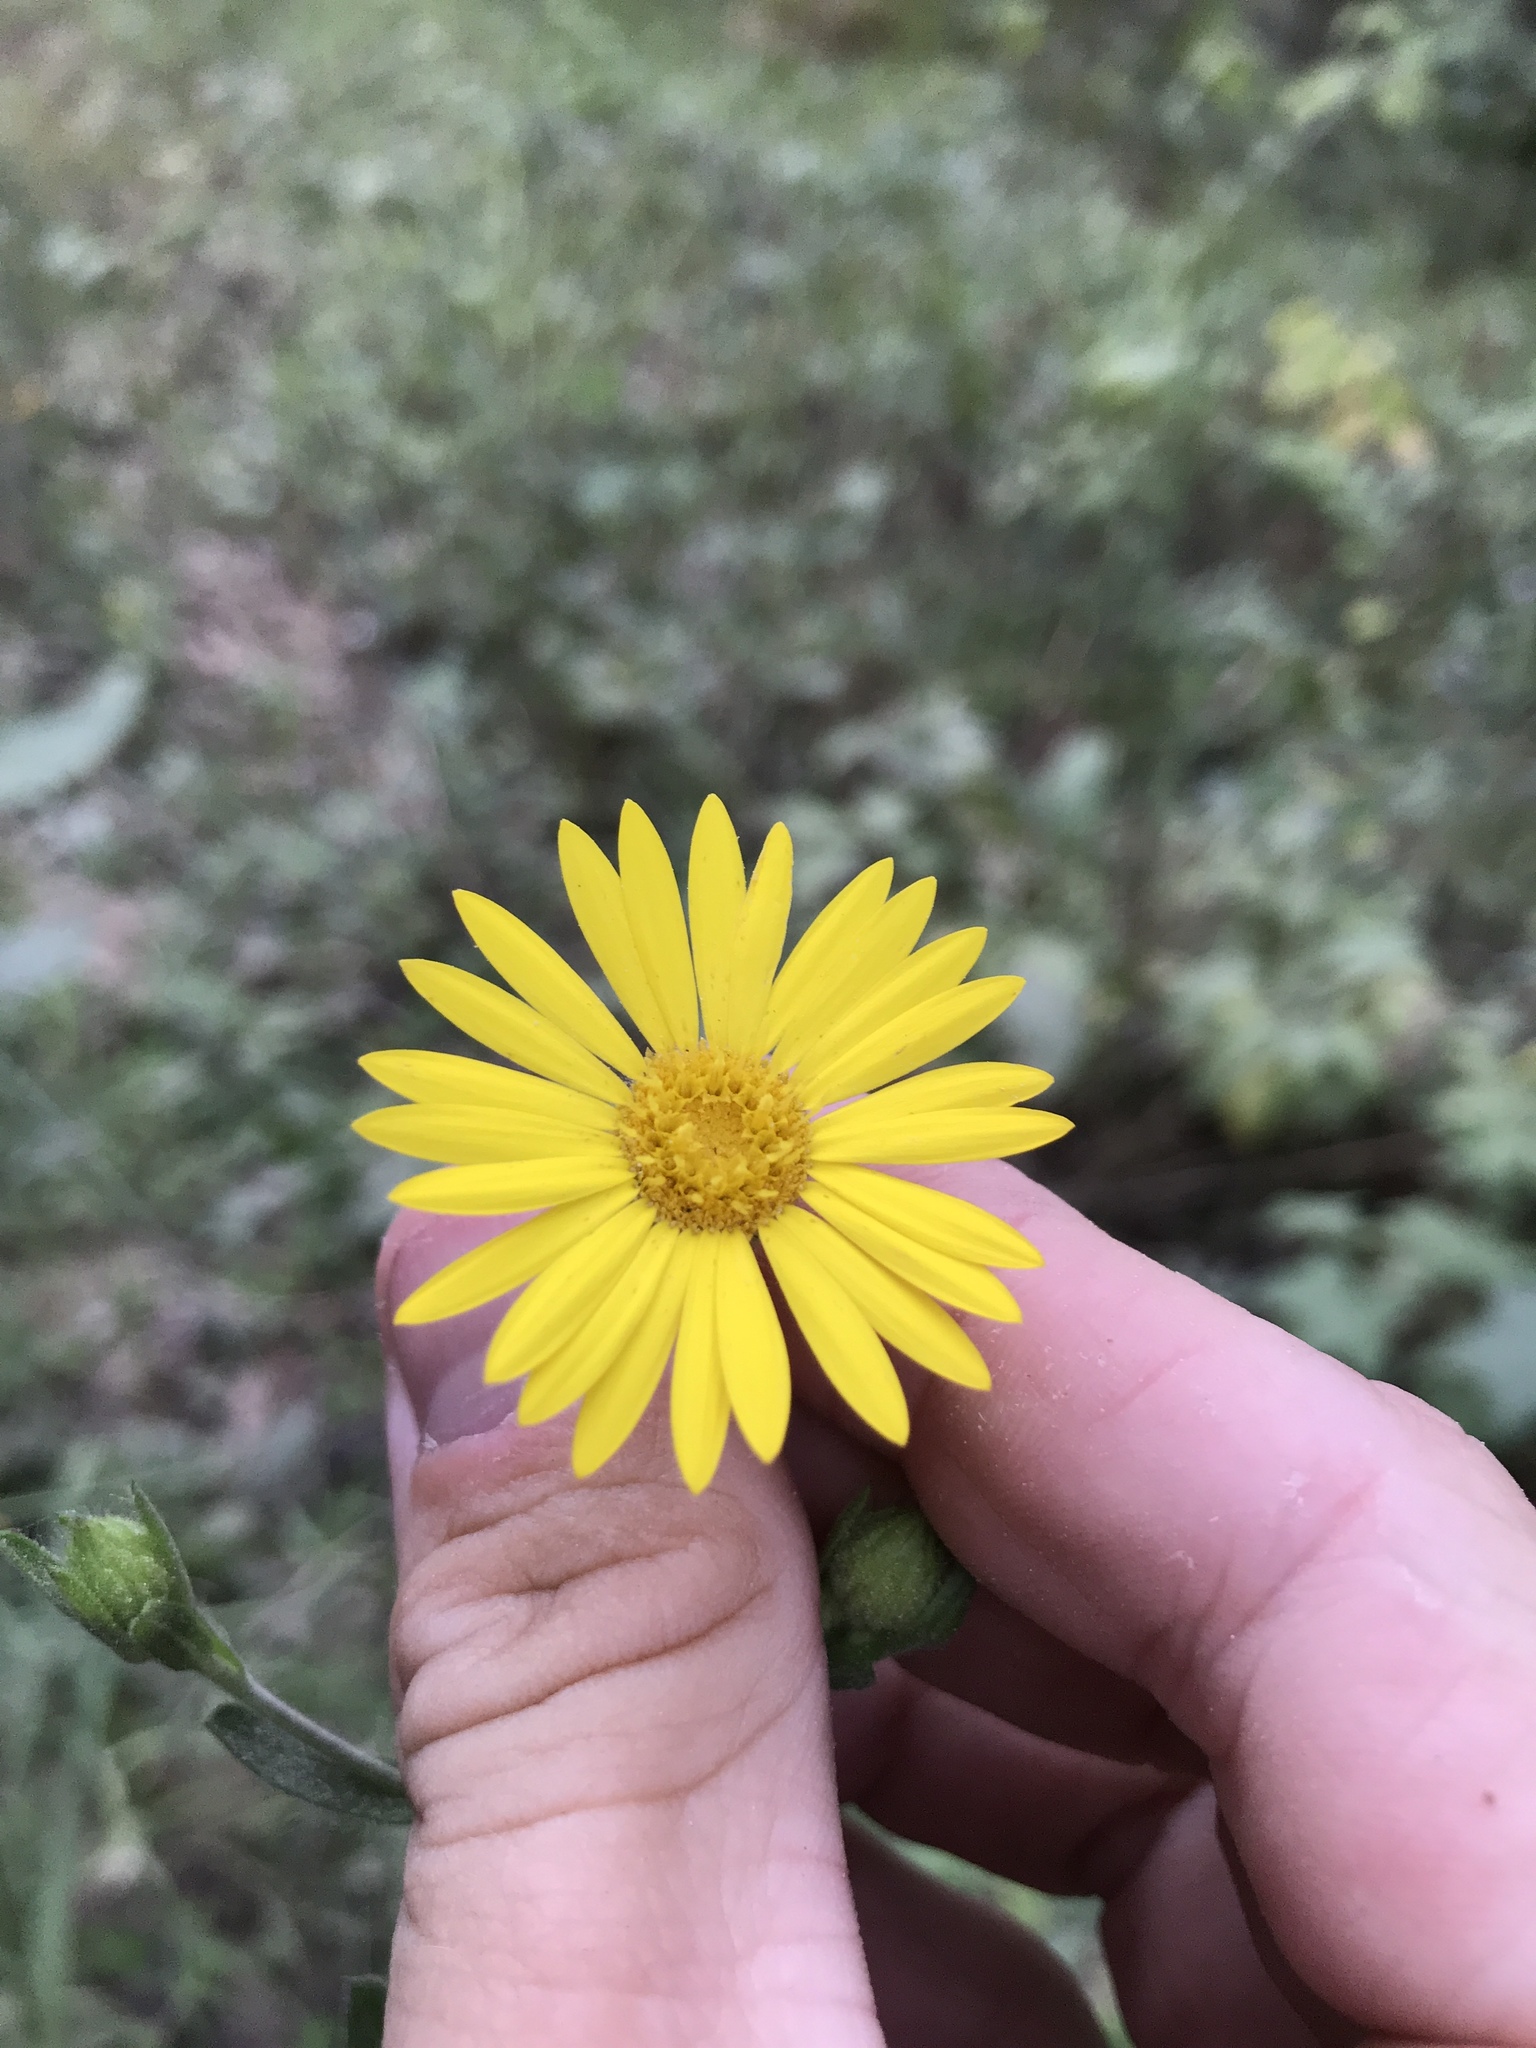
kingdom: Plantae
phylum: Tracheophyta
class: Magnoliopsida
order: Asterales
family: Asteraceae
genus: Bradburia
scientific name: Bradburia pilosa
